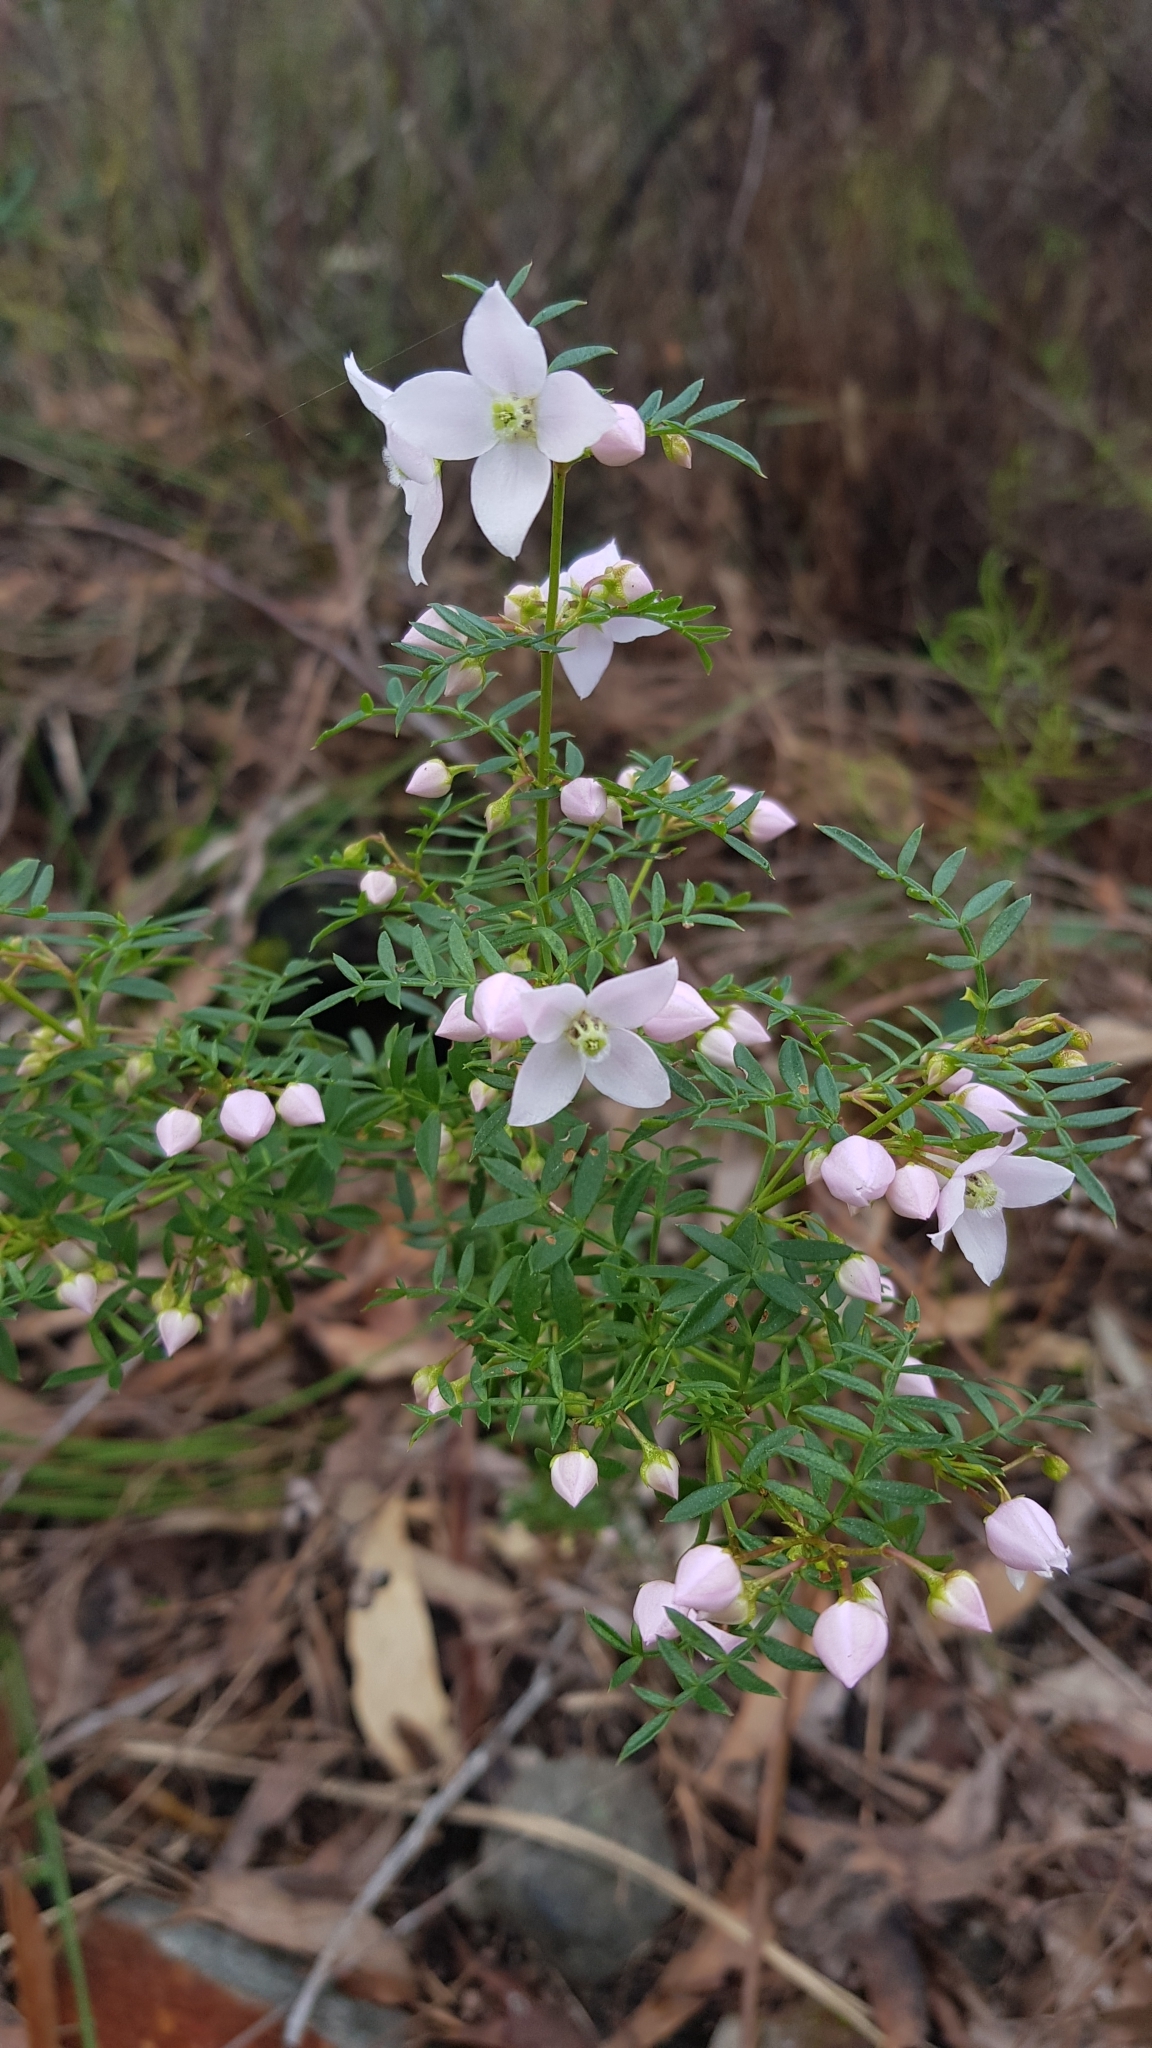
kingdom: Plantae
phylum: Tracheophyta
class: Magnoliopsida
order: Sapindales
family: Rutaceae
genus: Boronia
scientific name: Boronia floribunda
